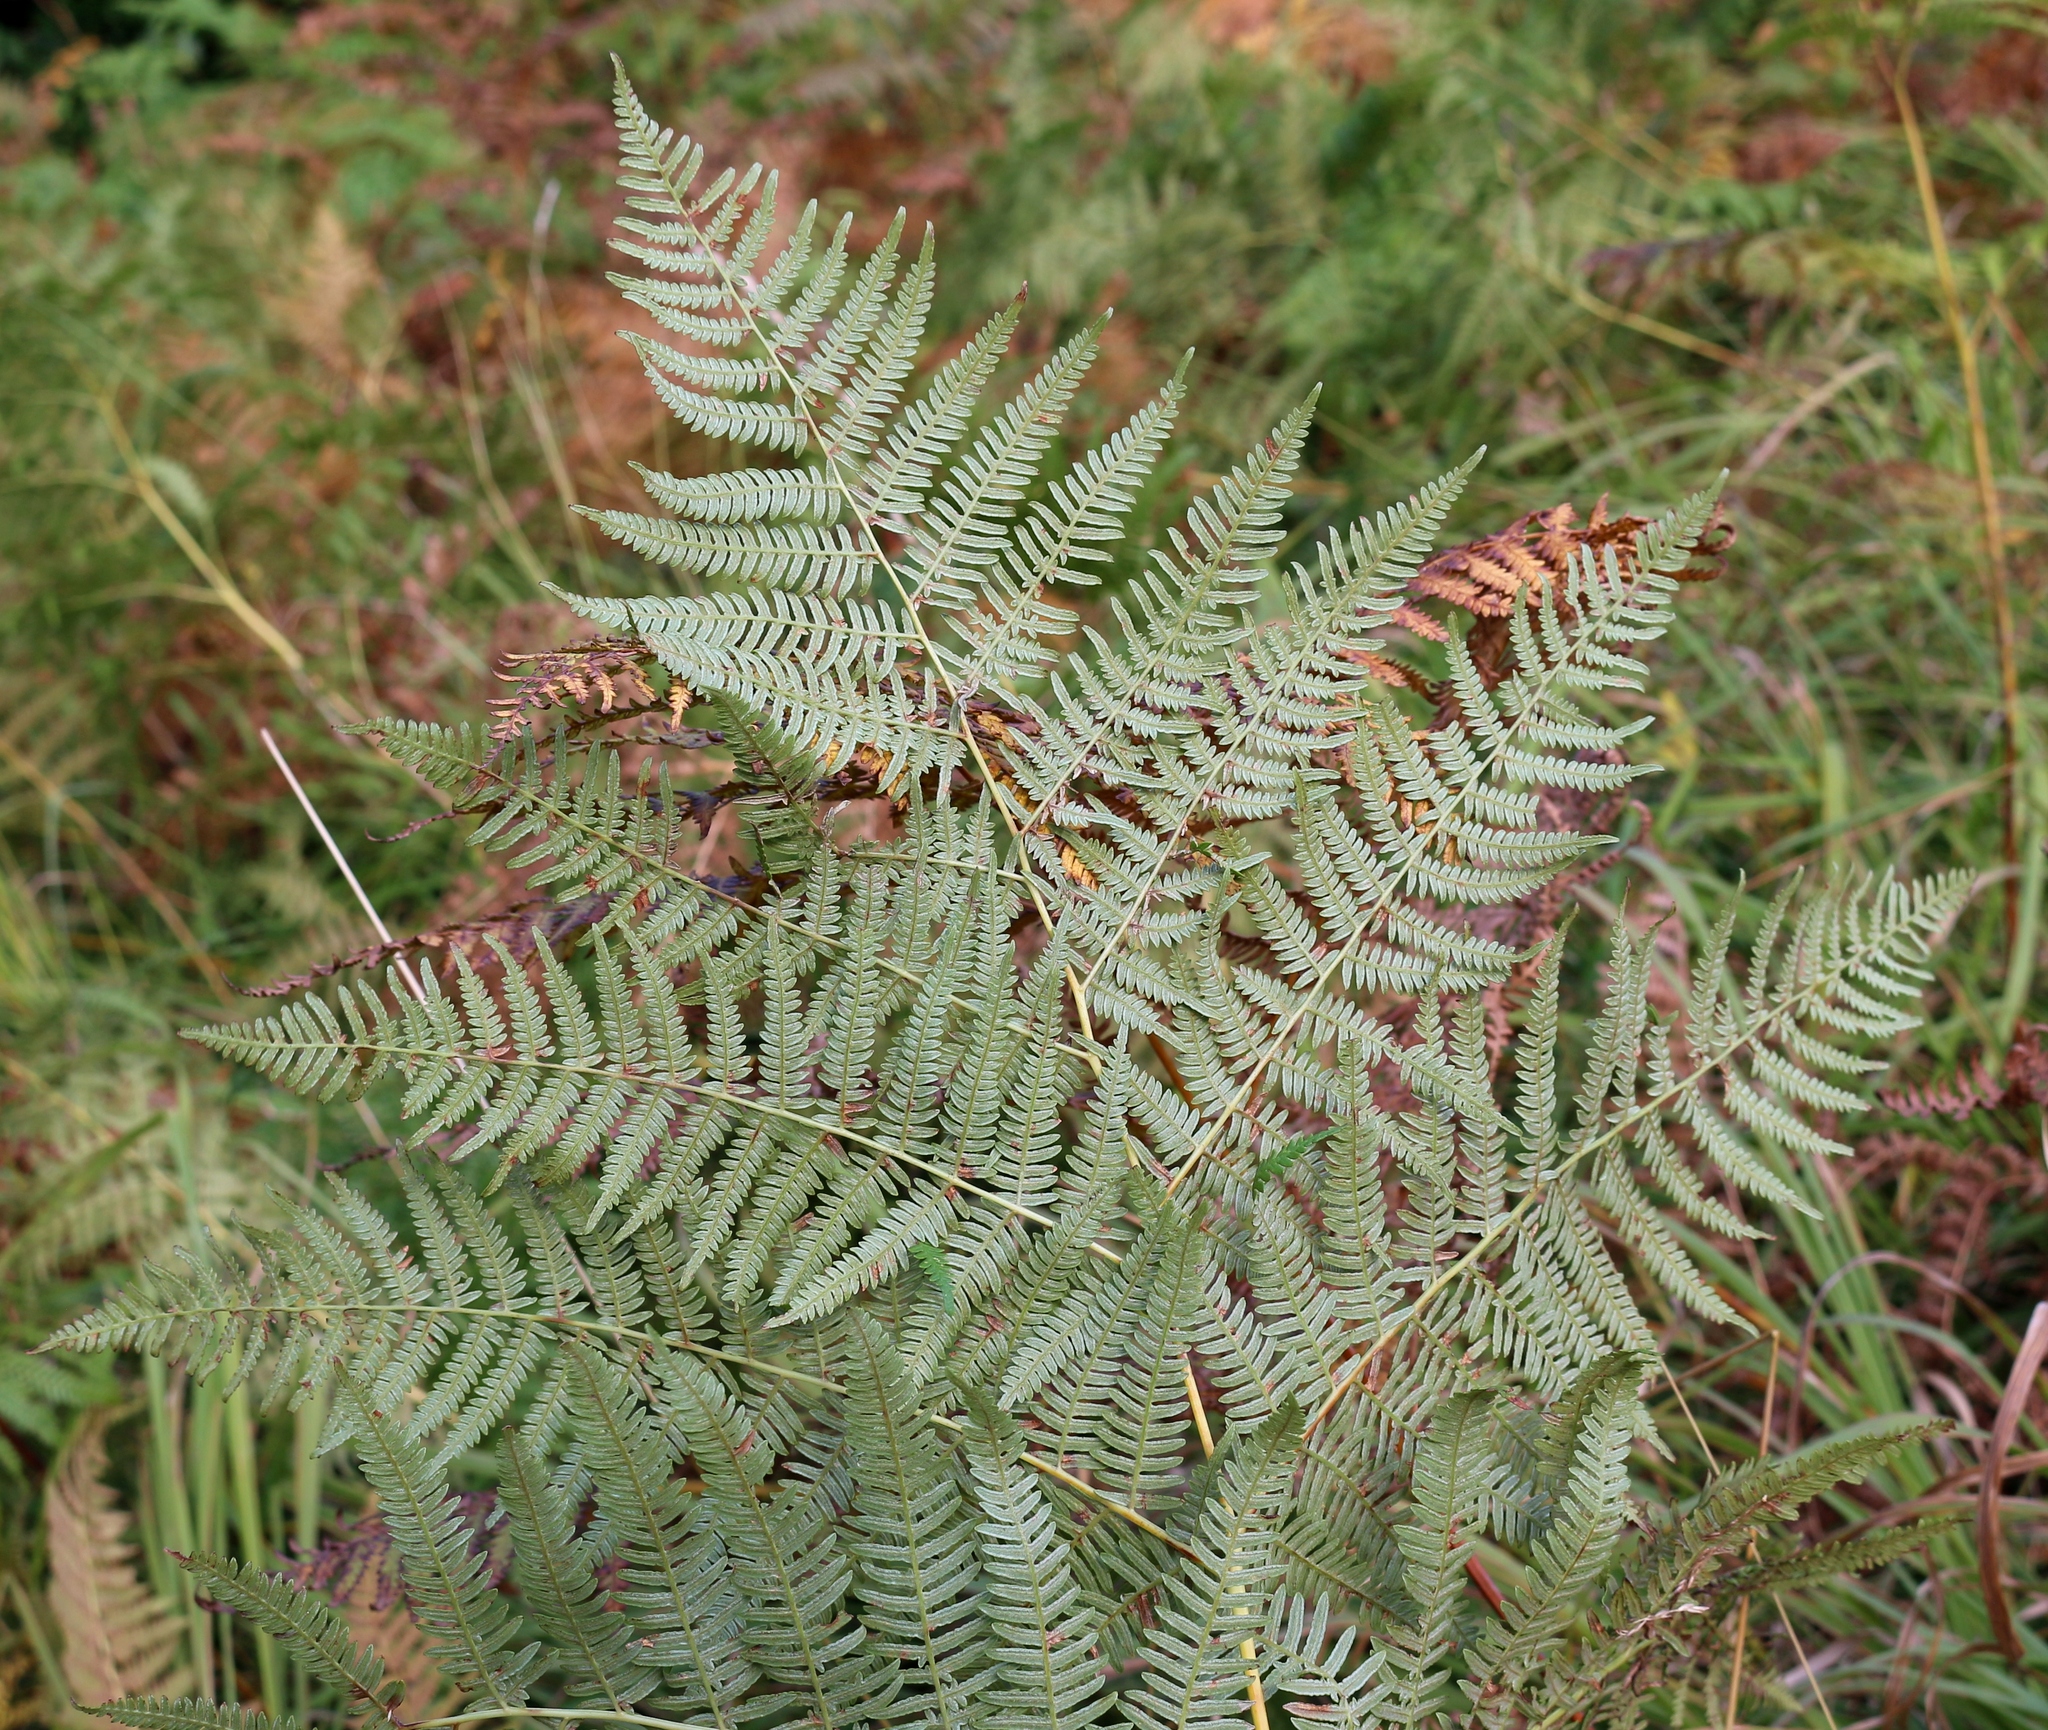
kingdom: Plantae
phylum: Tracheophyta
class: Polypodiopsida
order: Polypodiales
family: Dennstaedtiaceae
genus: Pteridium
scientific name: Pteridium tauricum
